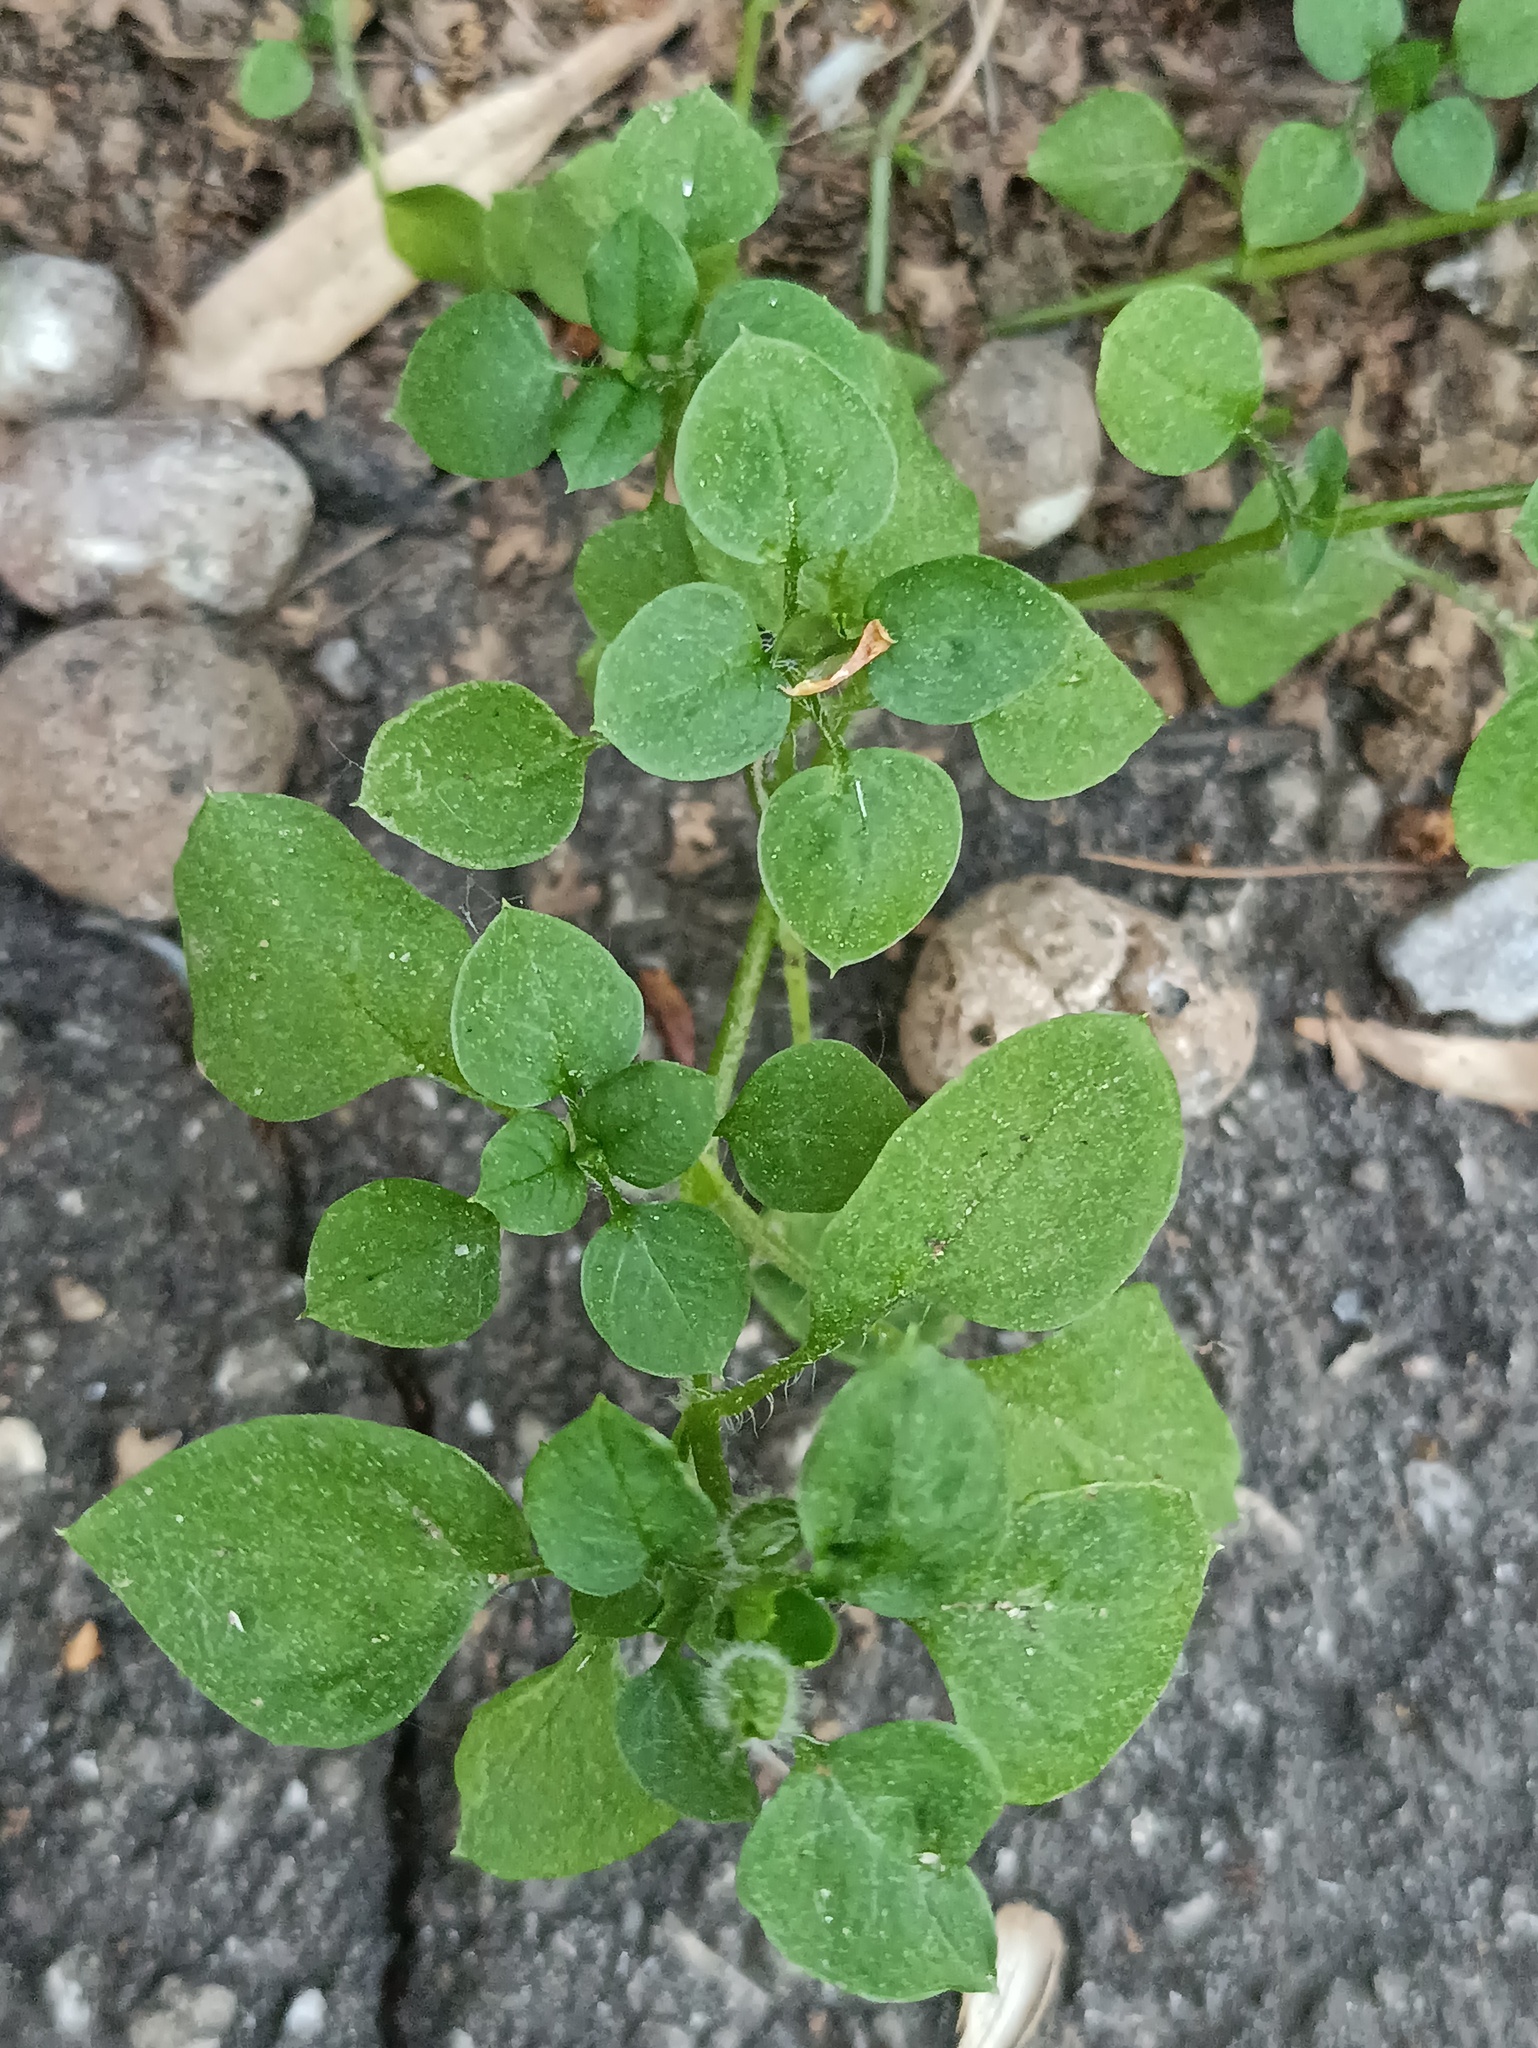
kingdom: Plantae
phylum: Tracheophyta
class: Magnoliopsida
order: Caryophyllales
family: Caryophyllaceae
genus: Stellaria
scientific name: Stellaria media
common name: Common chickweed
